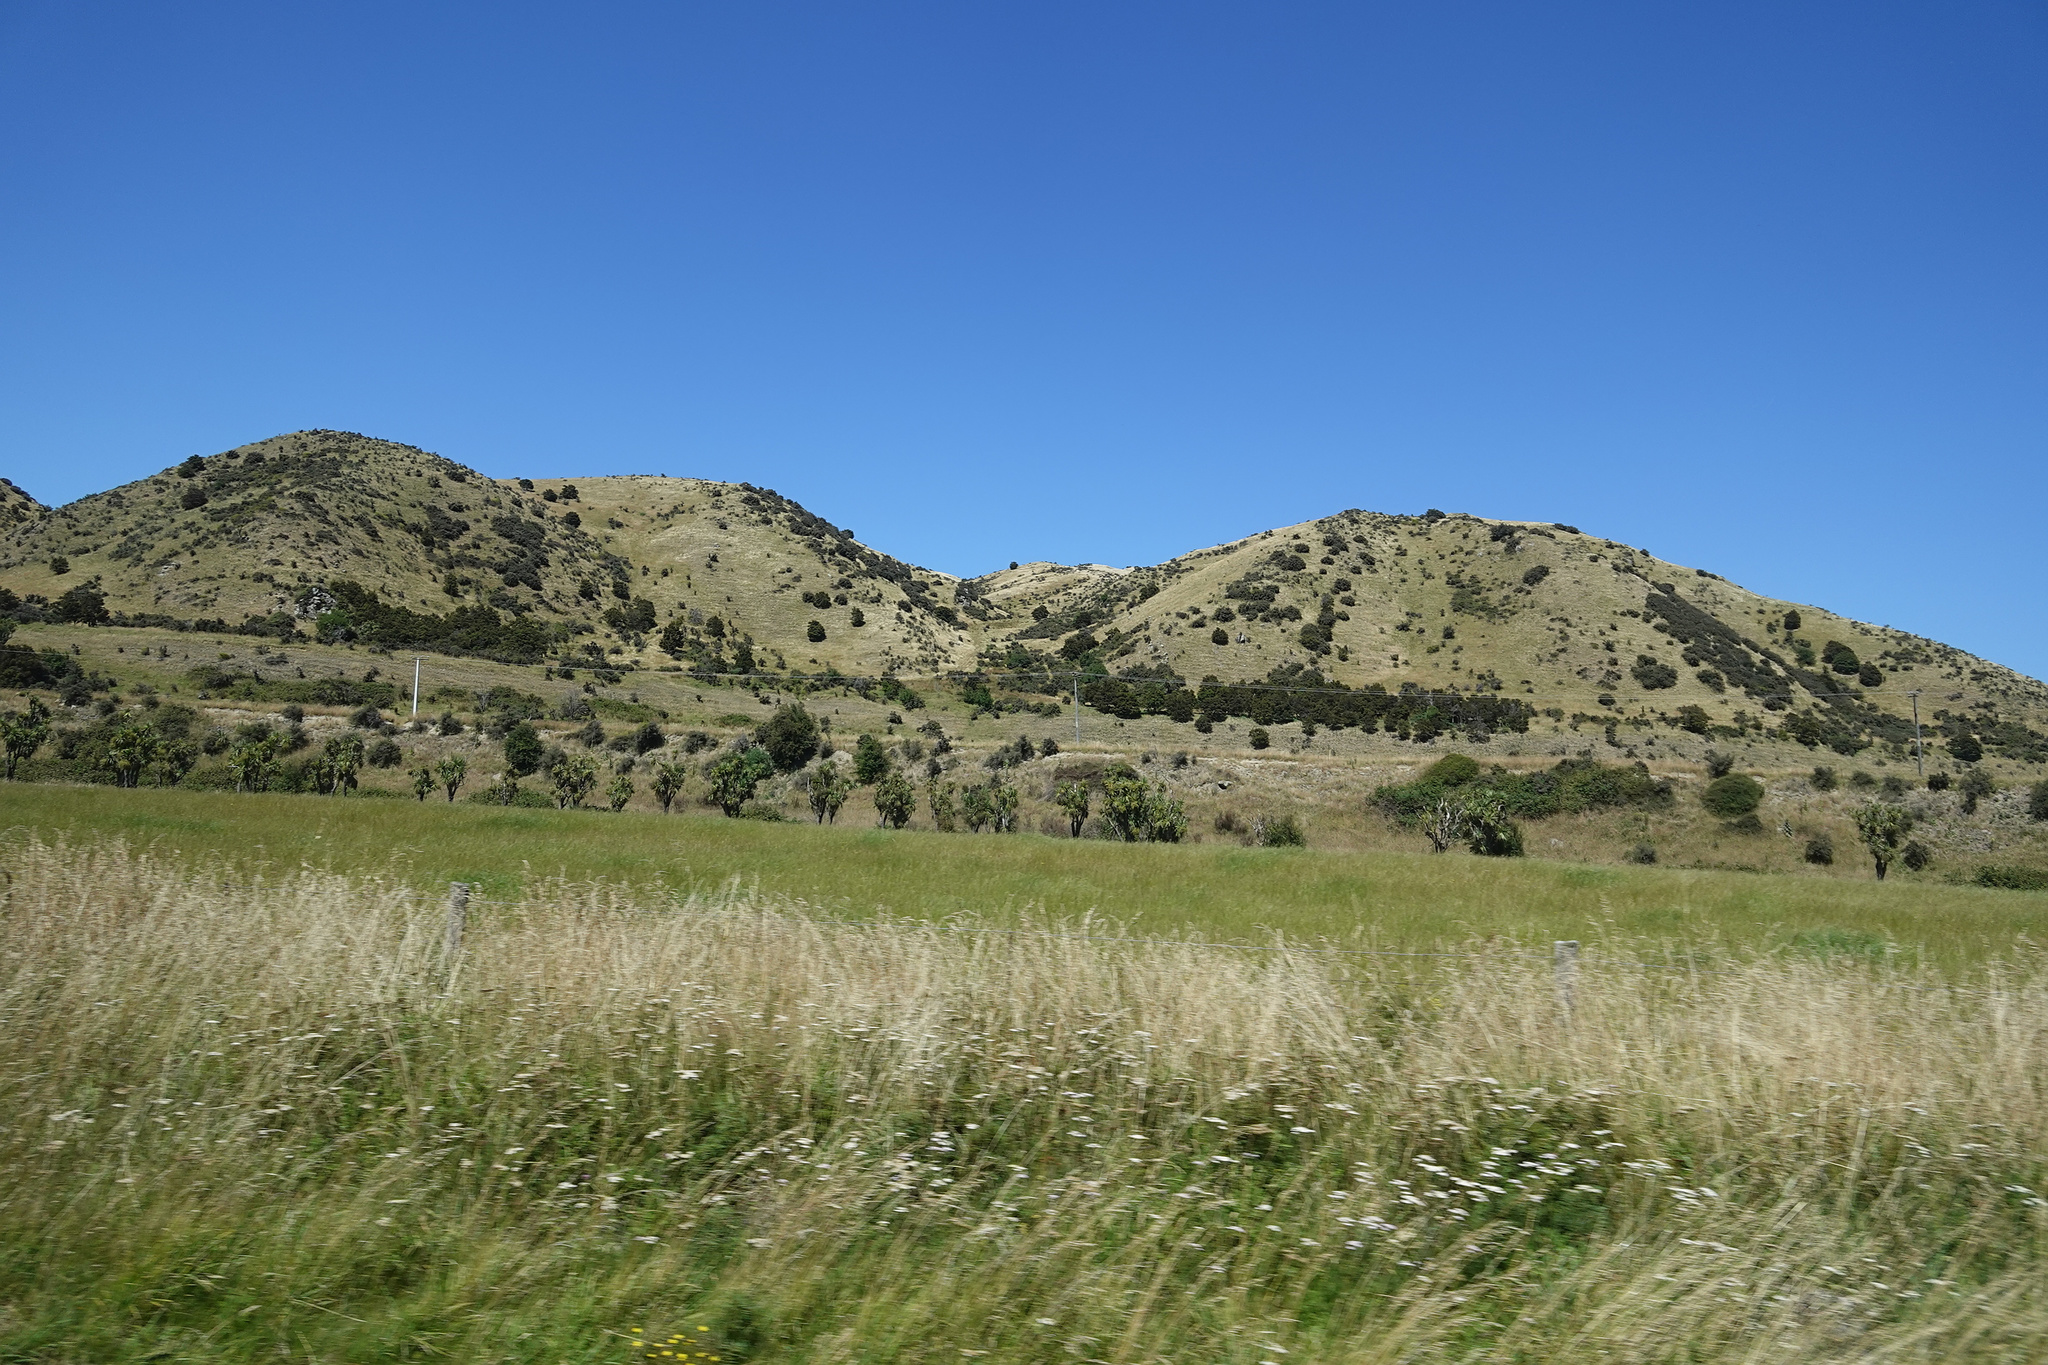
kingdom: Plantae
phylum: Tracheophyta
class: Liliopsida
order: Asparagales
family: Asparagaceae
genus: Cordyline
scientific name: Cordyline australis
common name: Cabbage-palm
